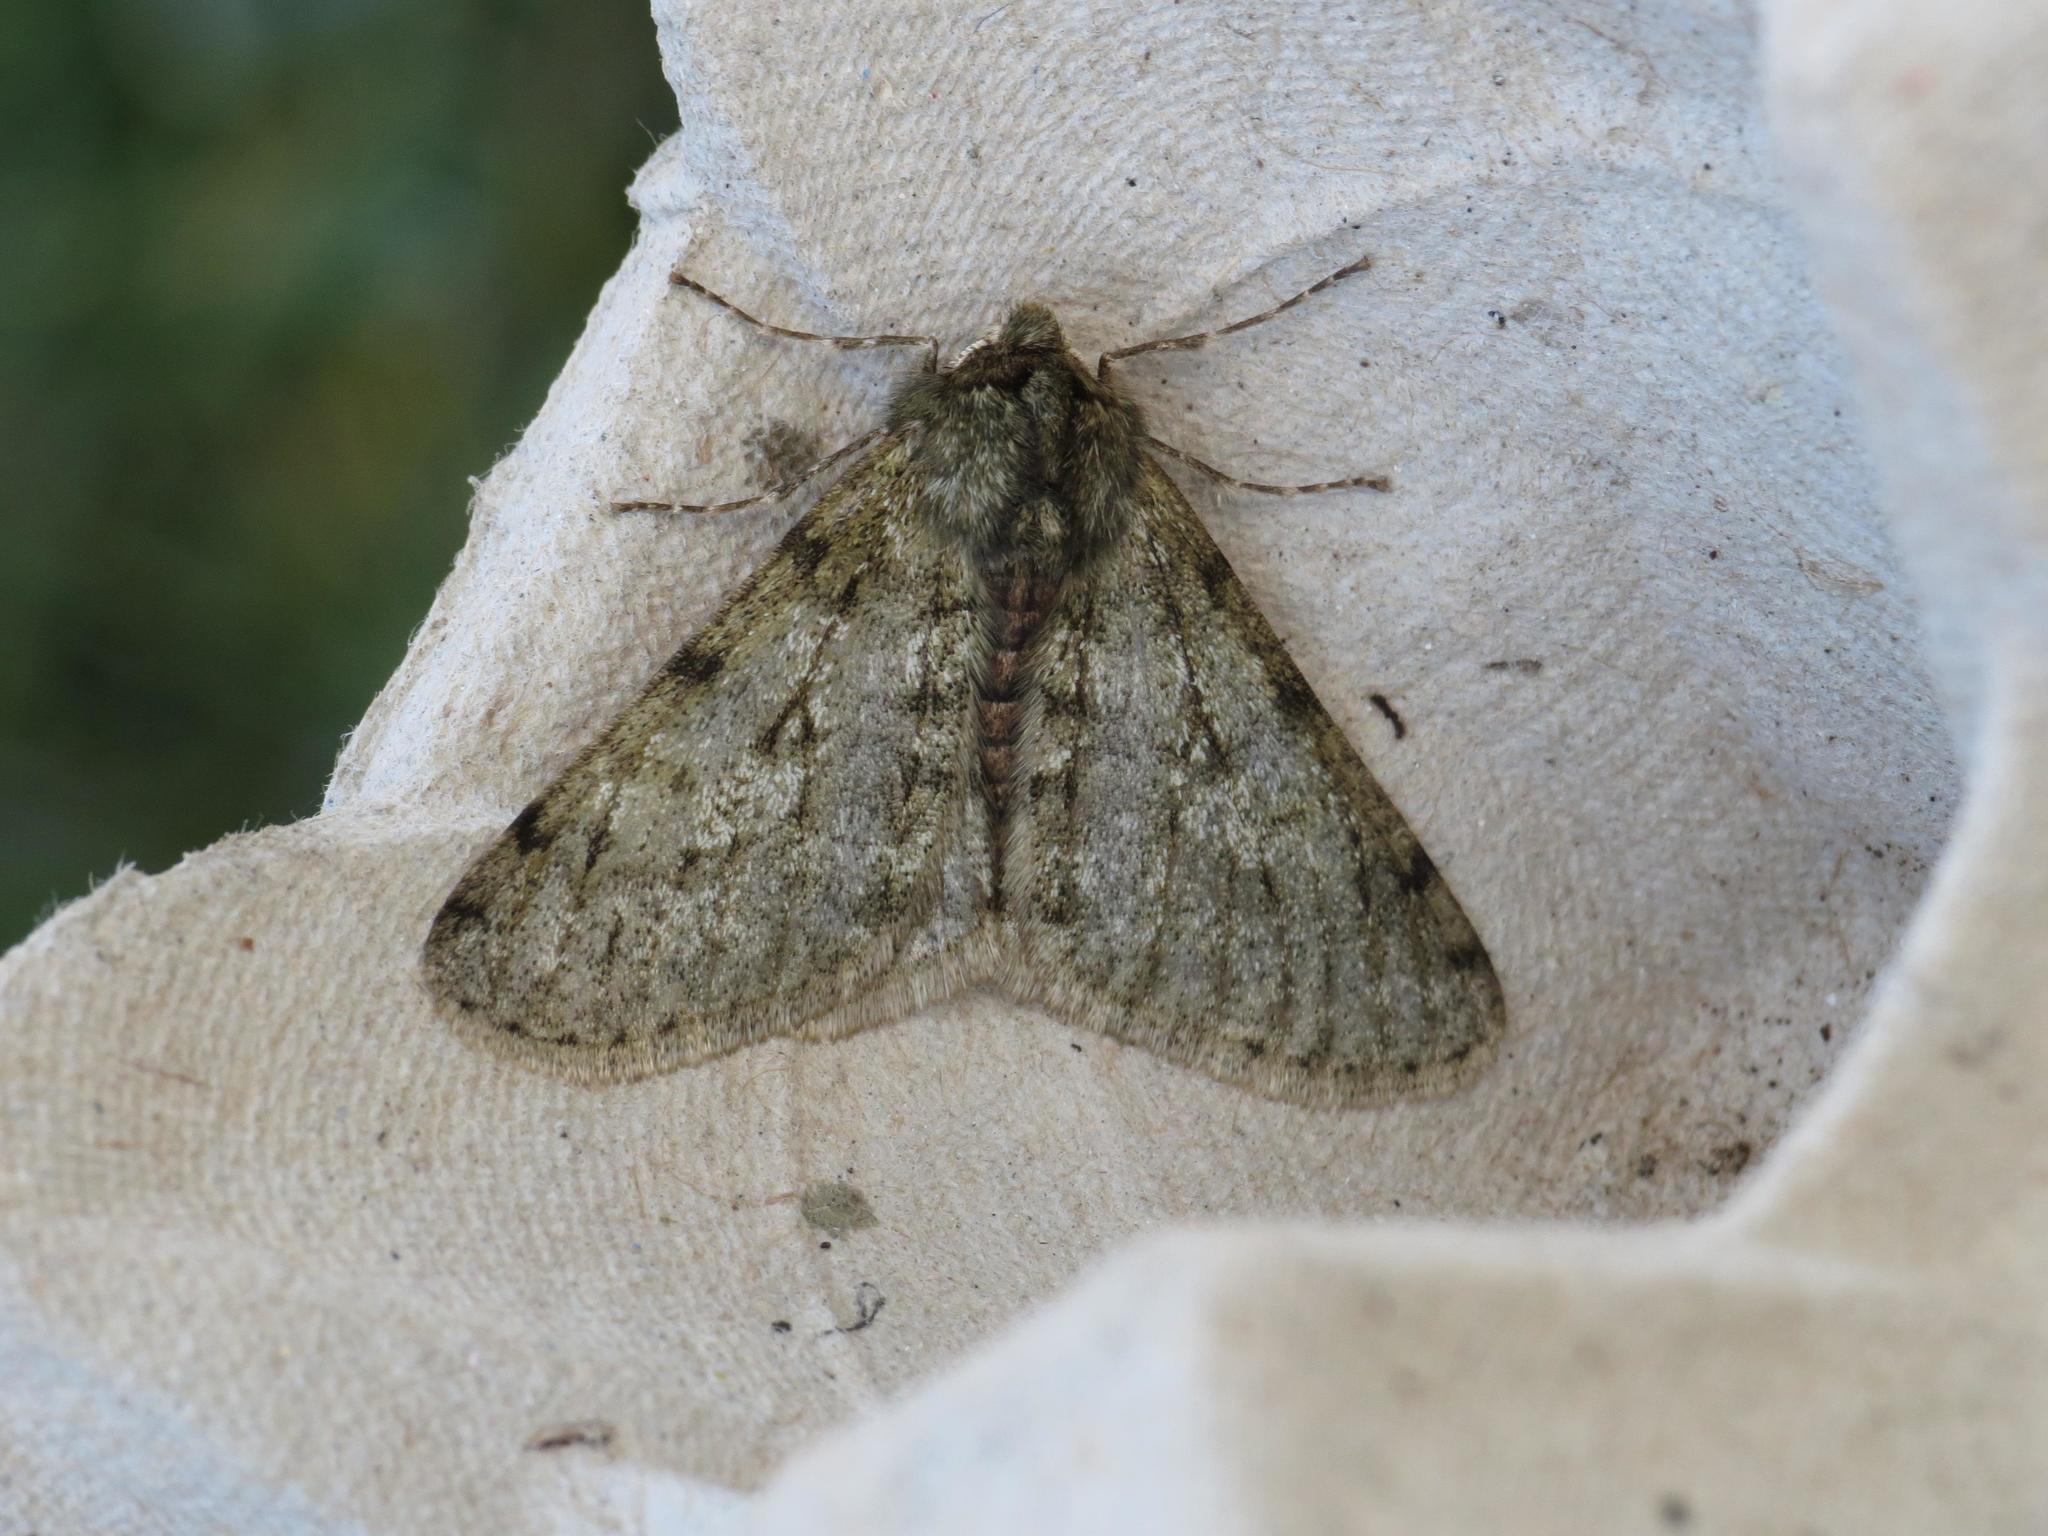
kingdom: Animalia
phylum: Arthropoda
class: Insecta
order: Lepidoptera
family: Geometridae
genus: Phigalia
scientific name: Phigalia pilosaria
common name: Pale brindled beauty
